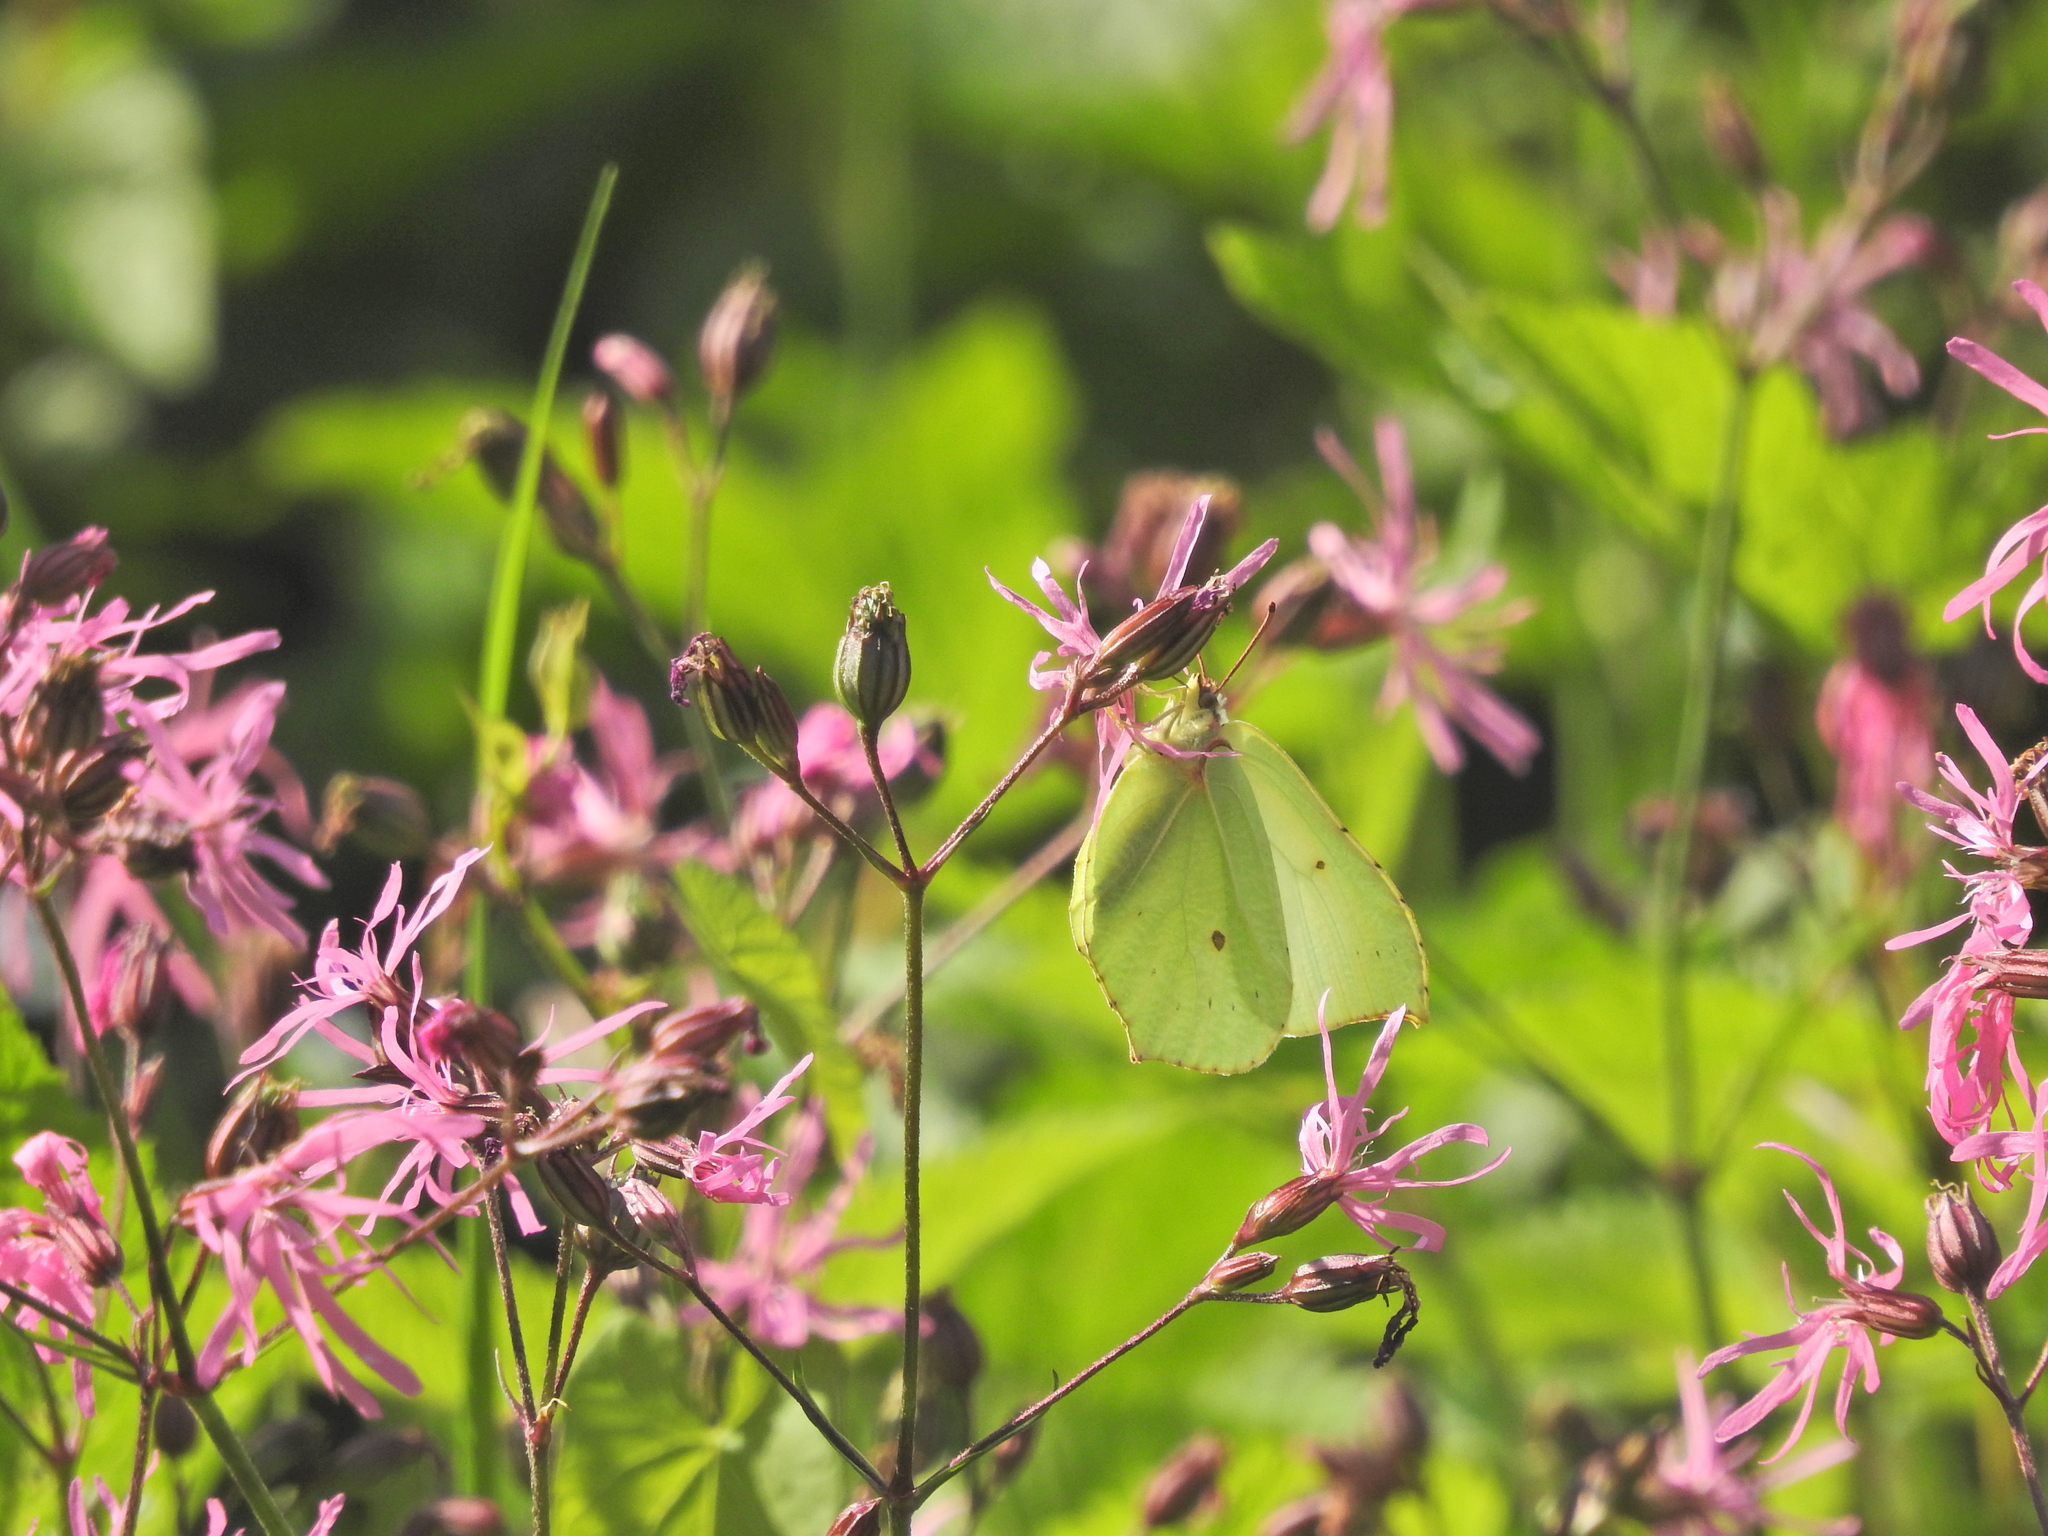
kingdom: Plantae
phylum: Tracheophyta
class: Magnoliopsida
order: Caryophyllales
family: Caryophyllaceae
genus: Silene
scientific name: Silene flos-cuculi
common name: Ragged-robin
